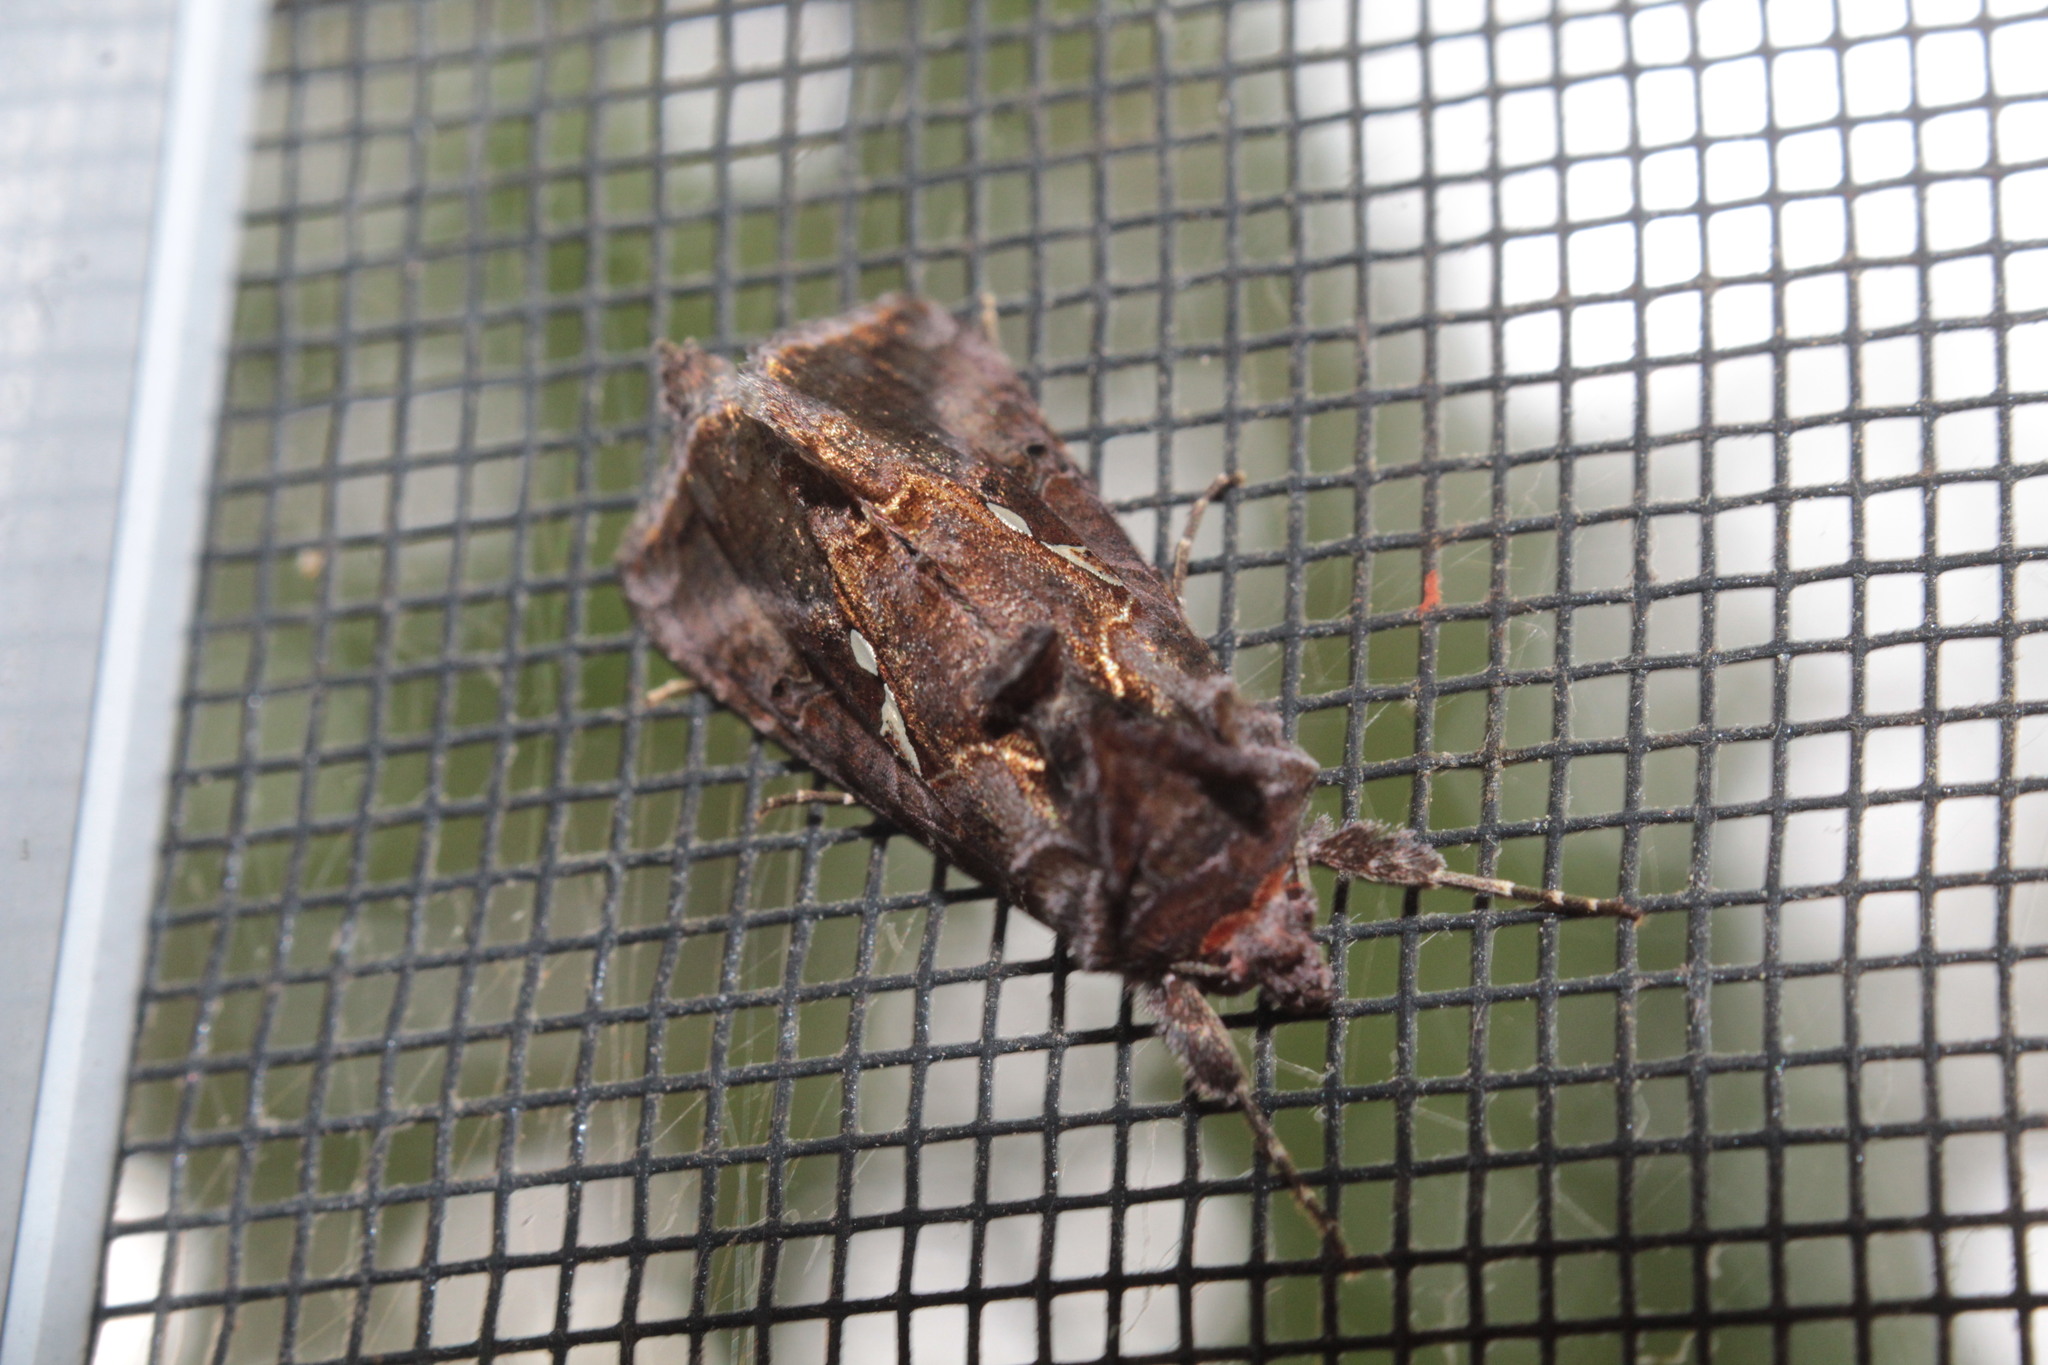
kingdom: Animalia
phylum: Arthropoda
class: Insecta
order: Lepidoptera
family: Noctuidae
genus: Autographa
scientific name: Autographa precationis
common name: Common looper moth
